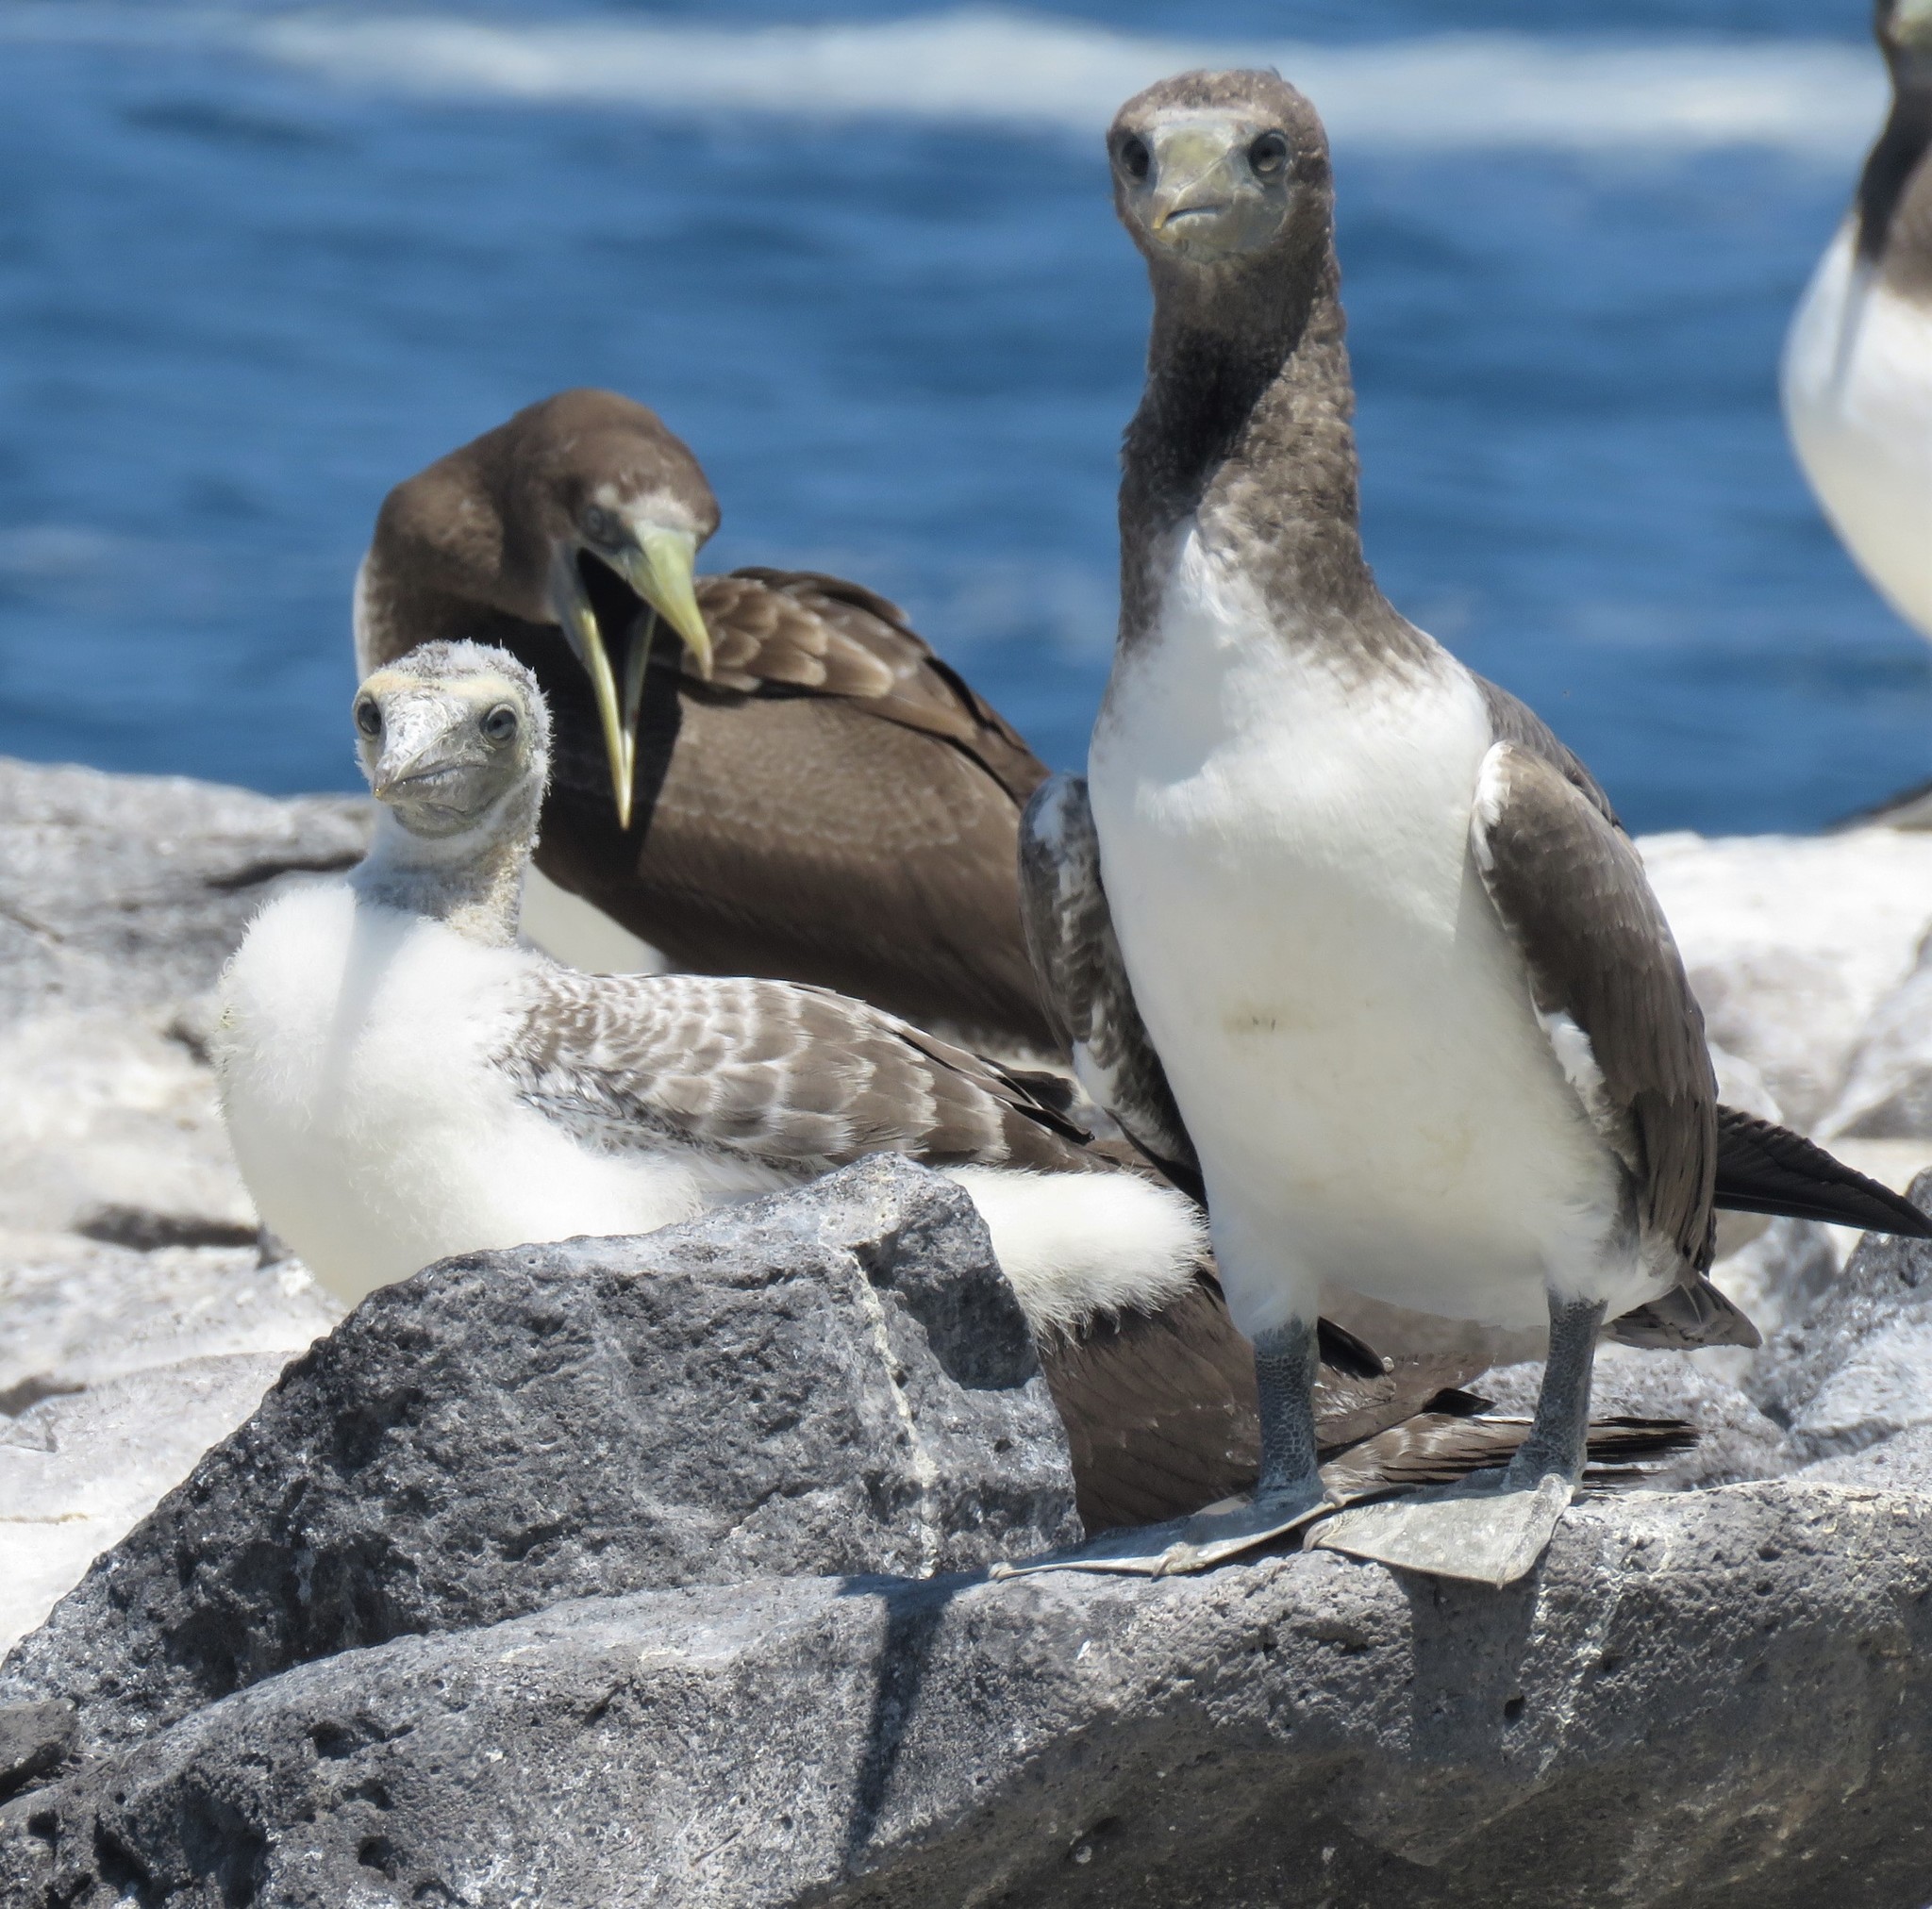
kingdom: Animalia
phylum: Chordata
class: Aves
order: Suliformes
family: Sulidae
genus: Sula
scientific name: Sula granti
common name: Nazca booby
